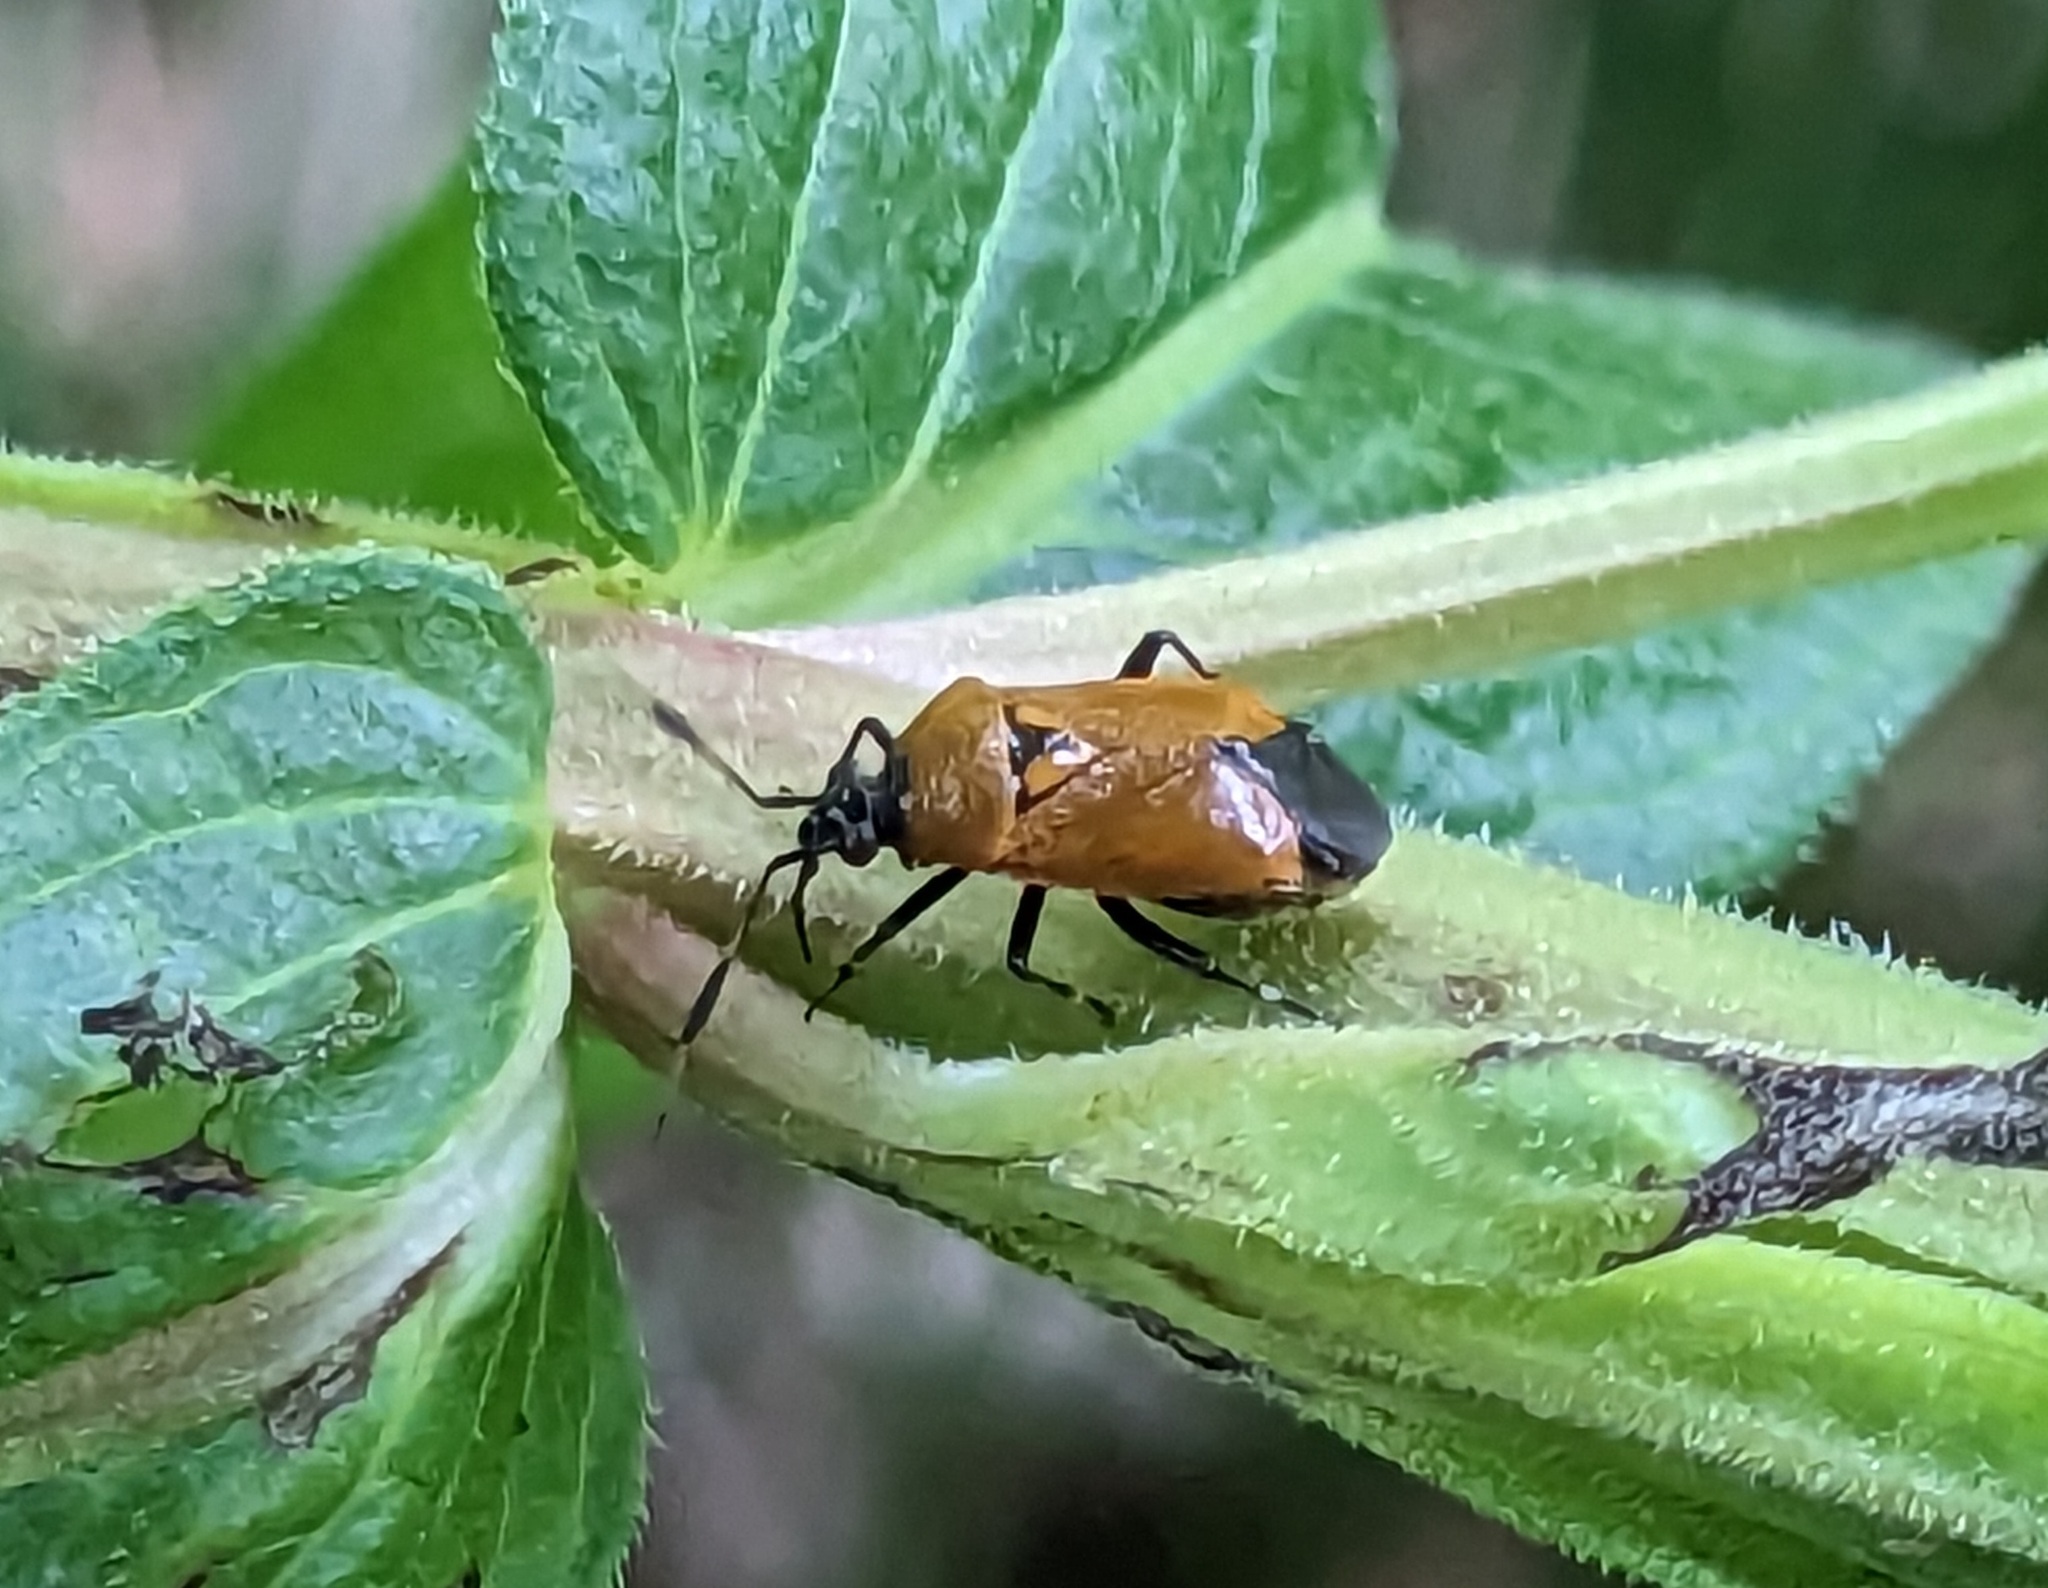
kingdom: Animalia
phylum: Arthropoda
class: Insecta
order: Hemiptera
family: Miridae
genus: Deraeocoris
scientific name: Deraeocoris punctum
